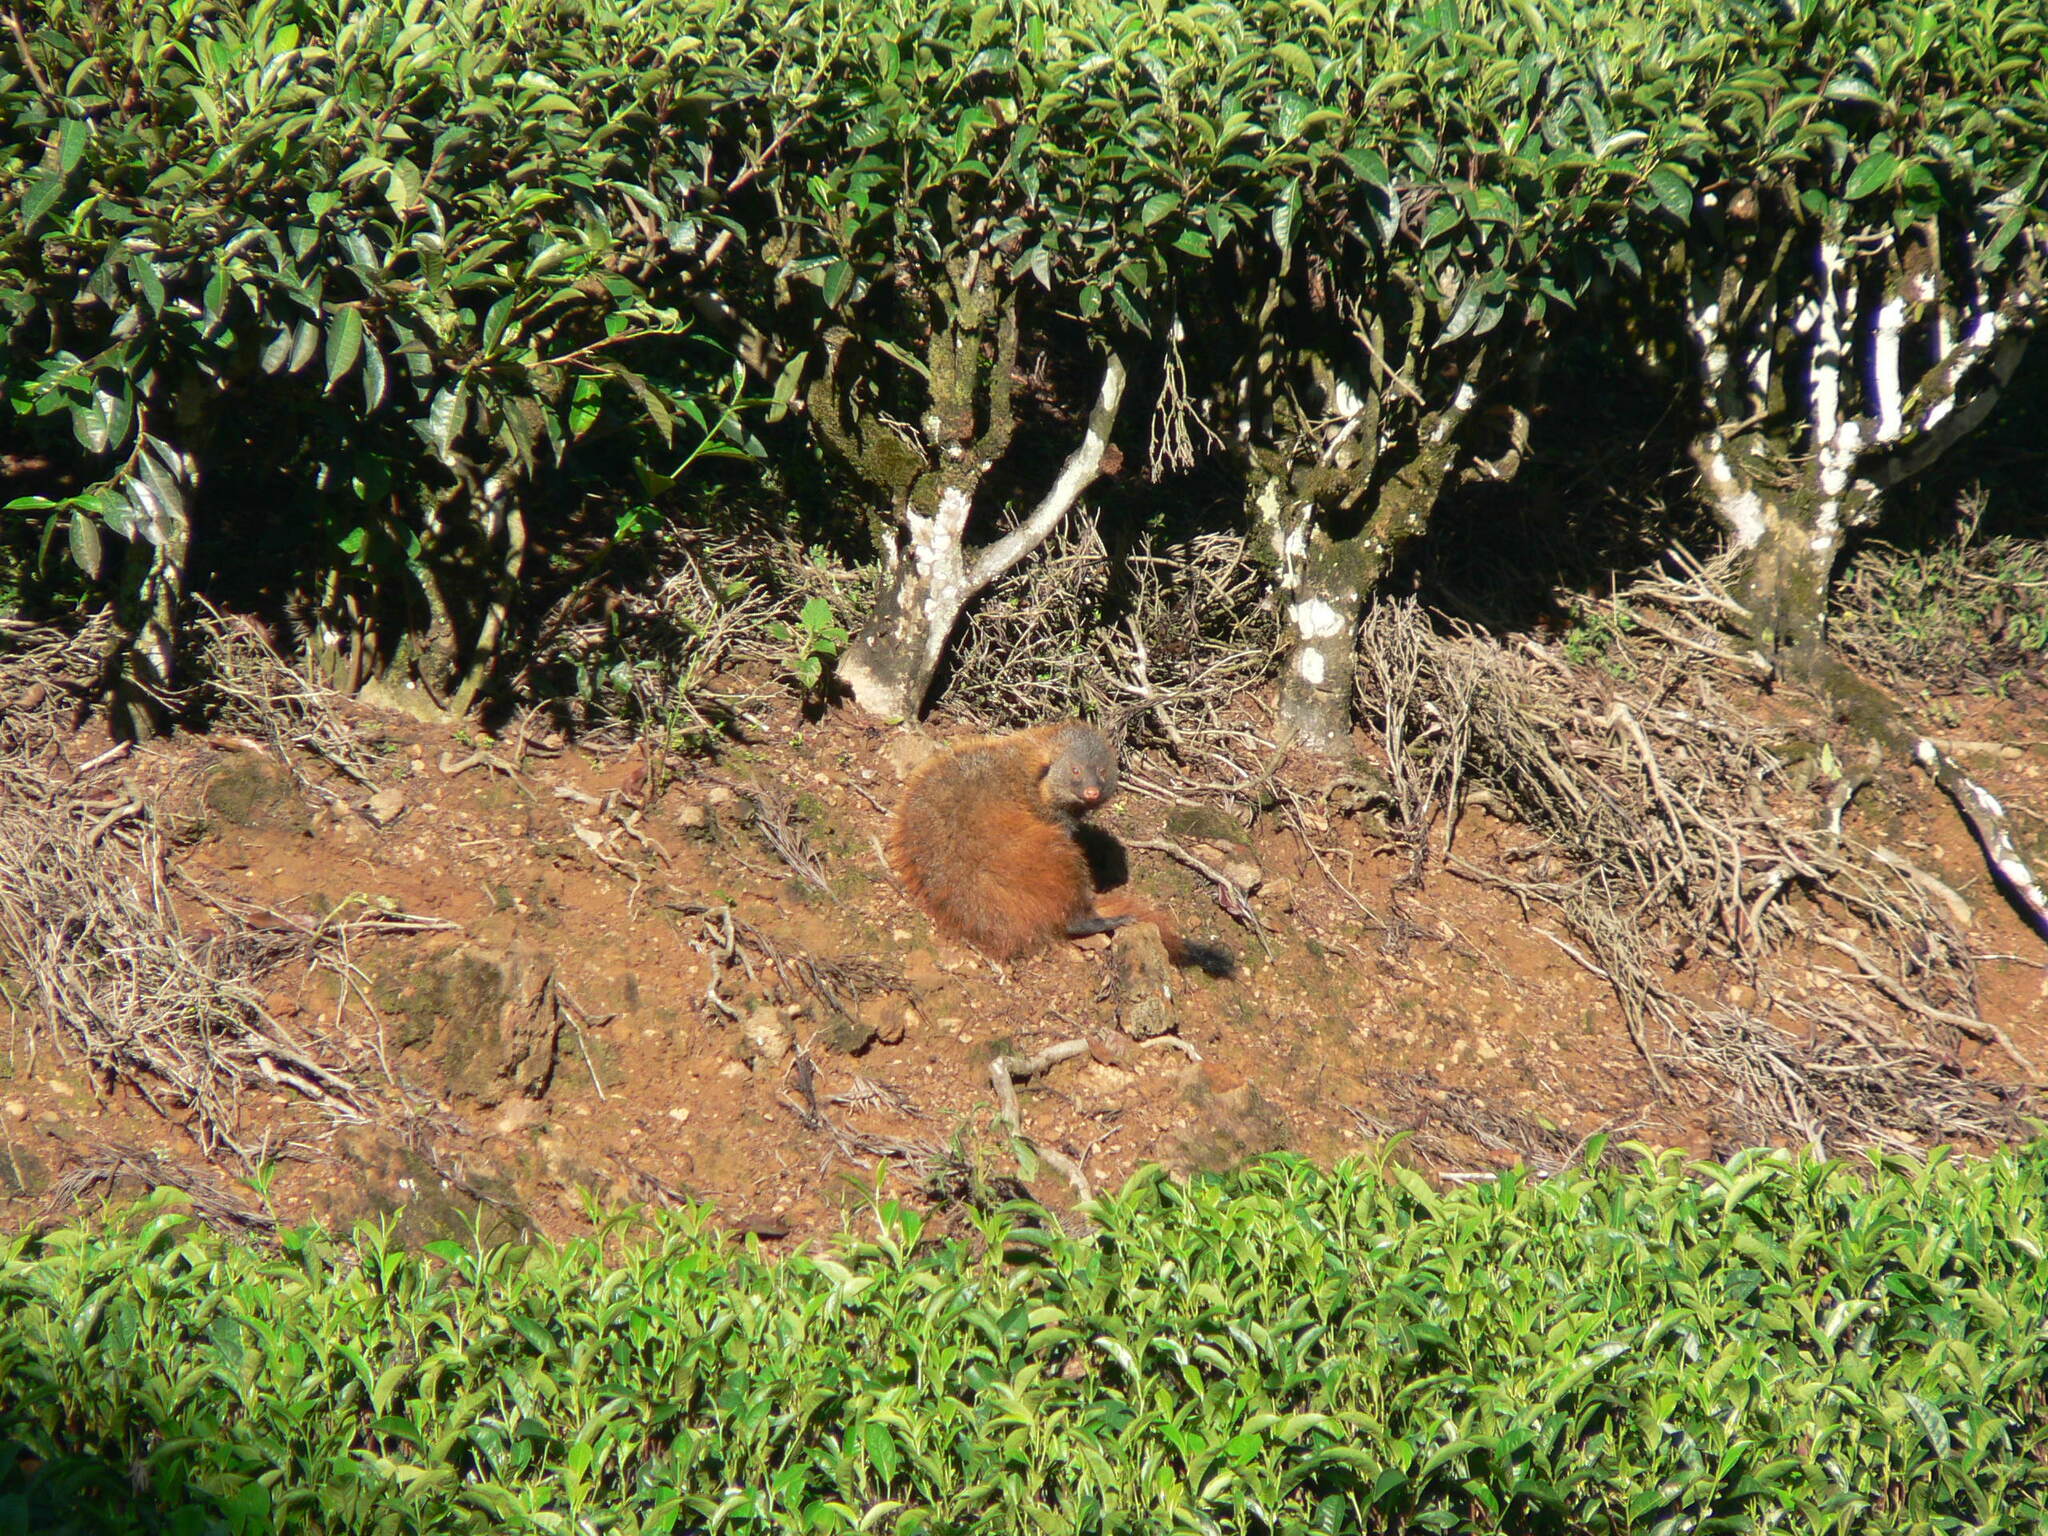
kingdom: Animalia
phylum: Chordata
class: Mammalia
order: Carnivora
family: Herpestidae
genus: Herpestes
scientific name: Herpestes vitticollis
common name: Stripe-necked mongoose
